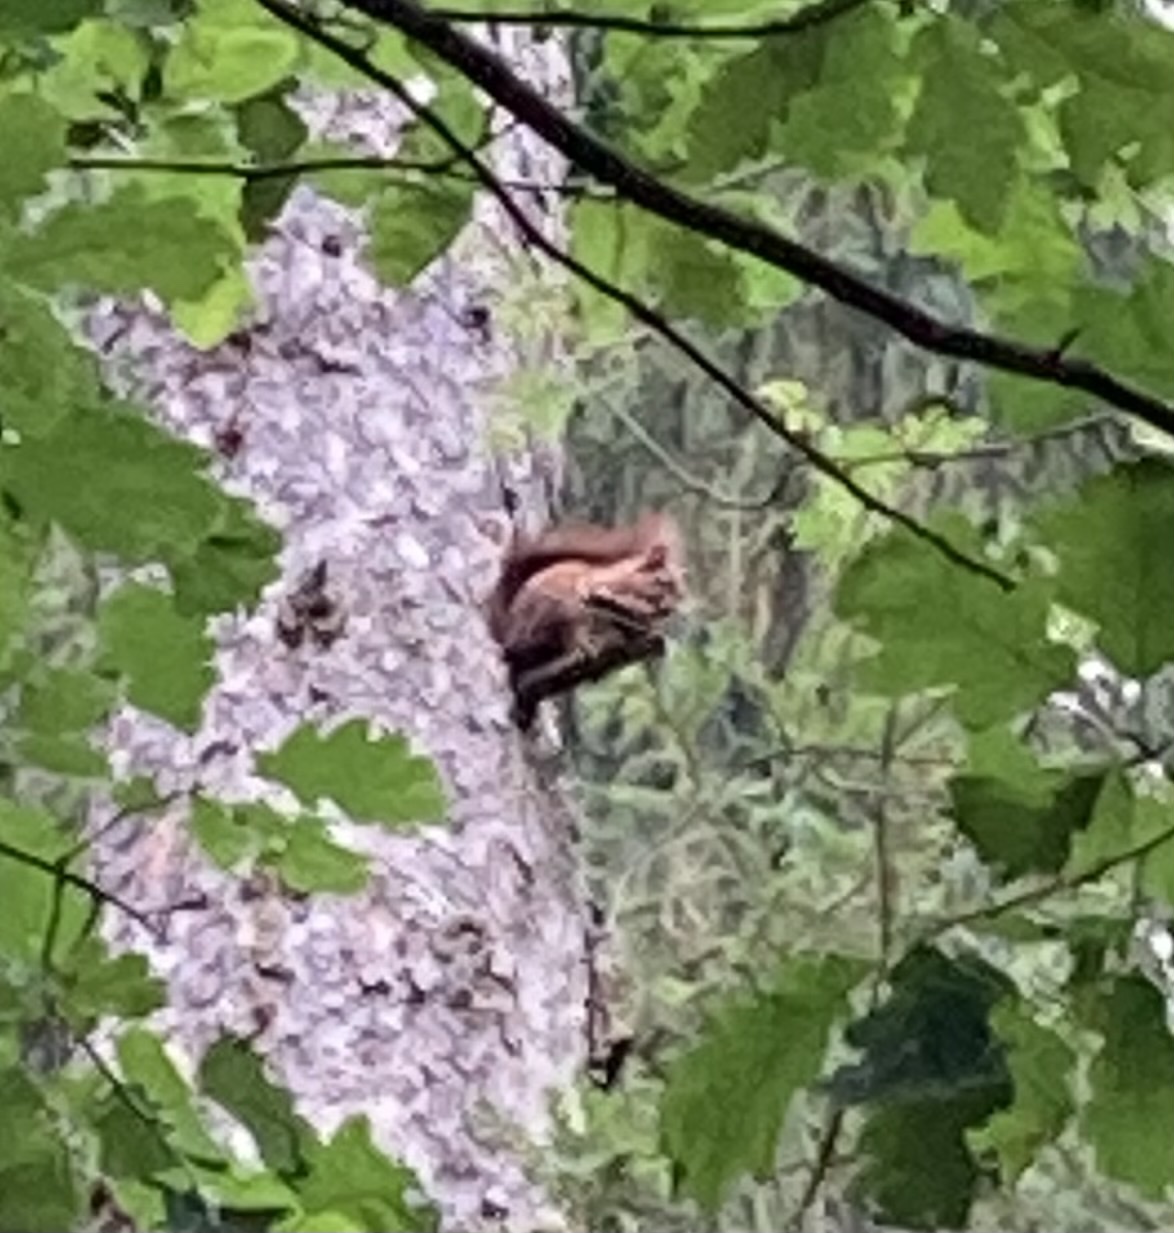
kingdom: Animalia
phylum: Chordata
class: Mammalia
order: Rodentia
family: Sciuridae
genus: Sciurus
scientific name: Sciurus vulgaris
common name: Eurasian red squirrel
